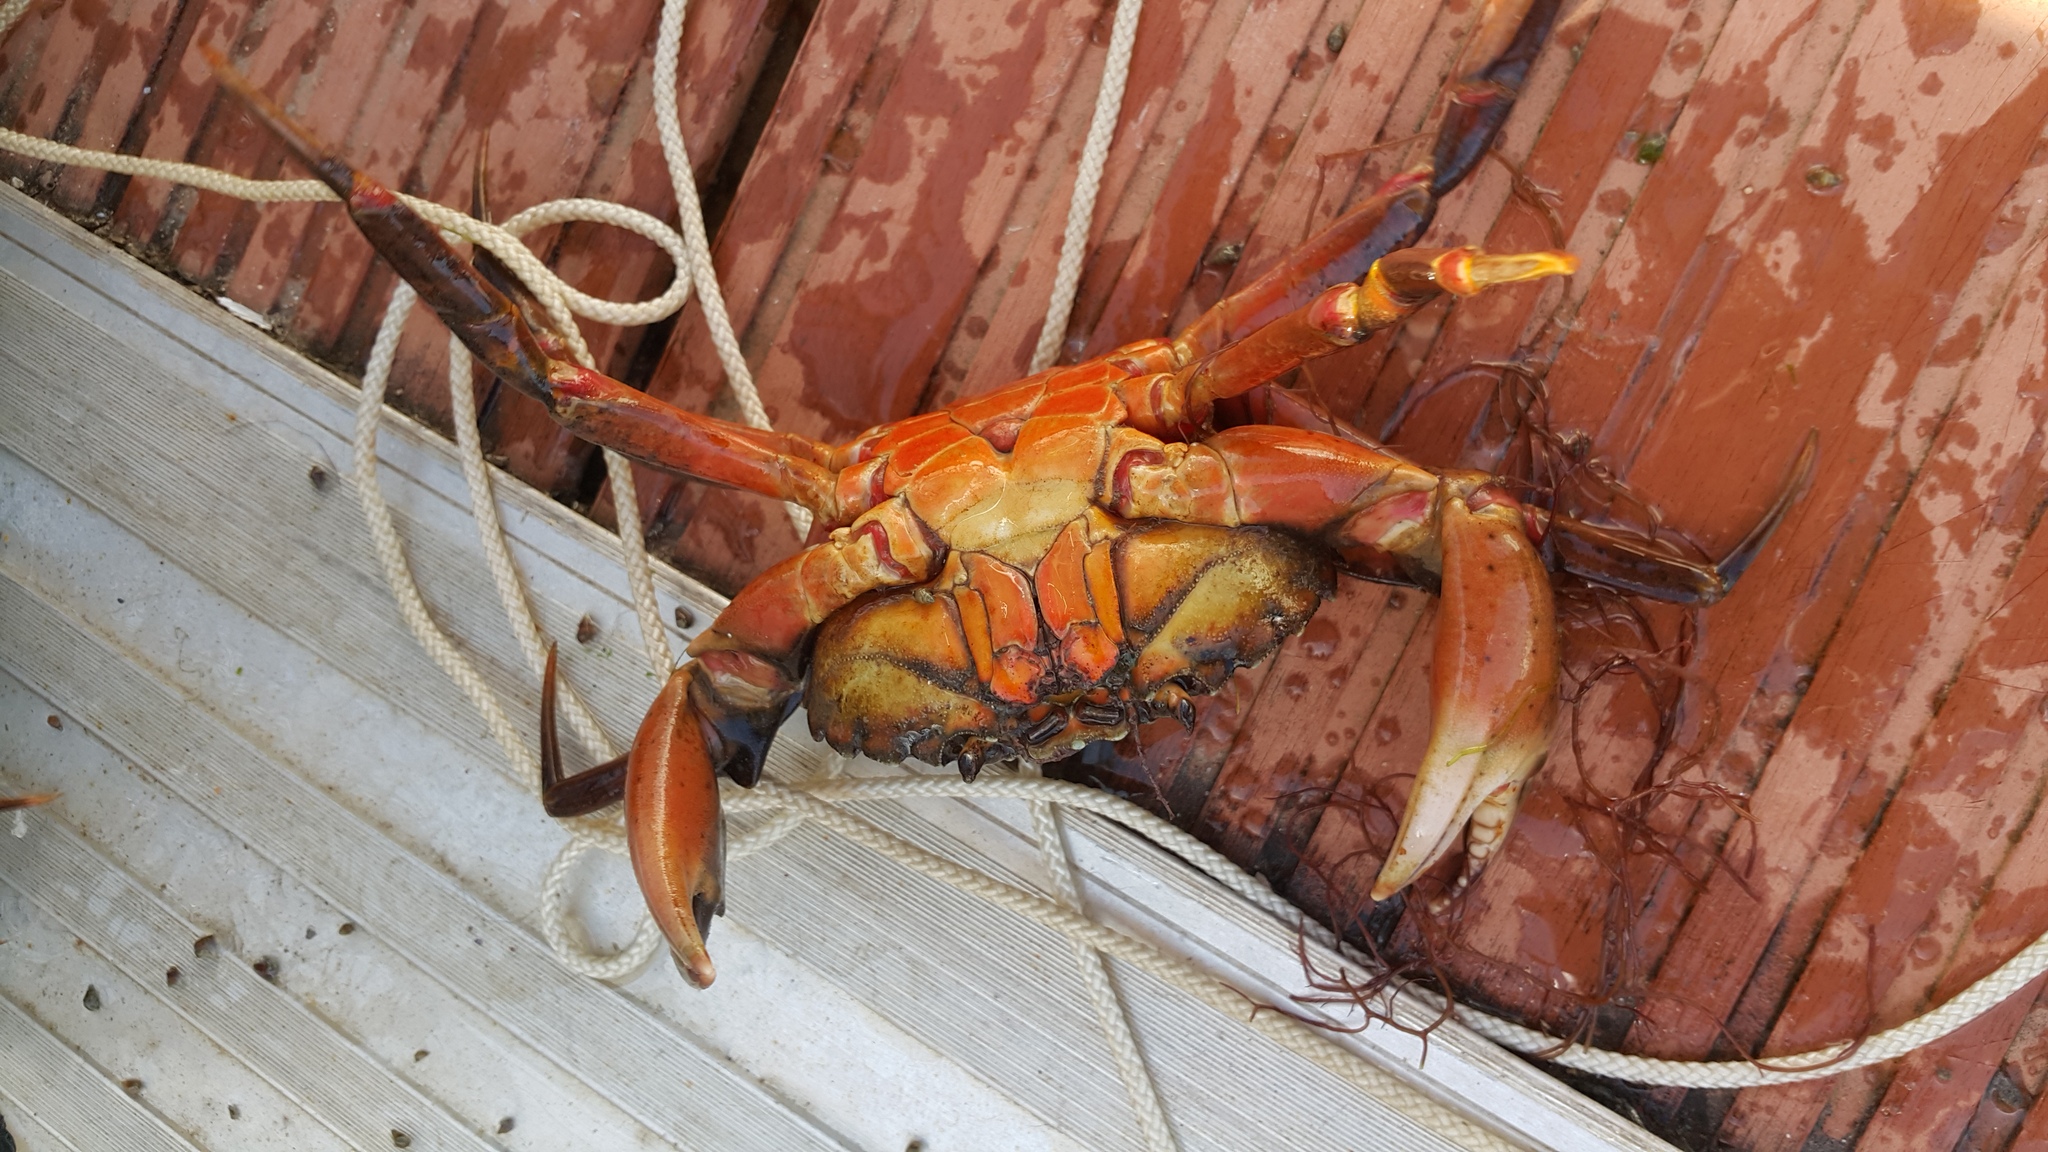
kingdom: Animalia
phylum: Arthropoda
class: Malacostraca
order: Decapoda
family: Carcinidae
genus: Carcinus
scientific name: Carcinus maenas
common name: European green crab
